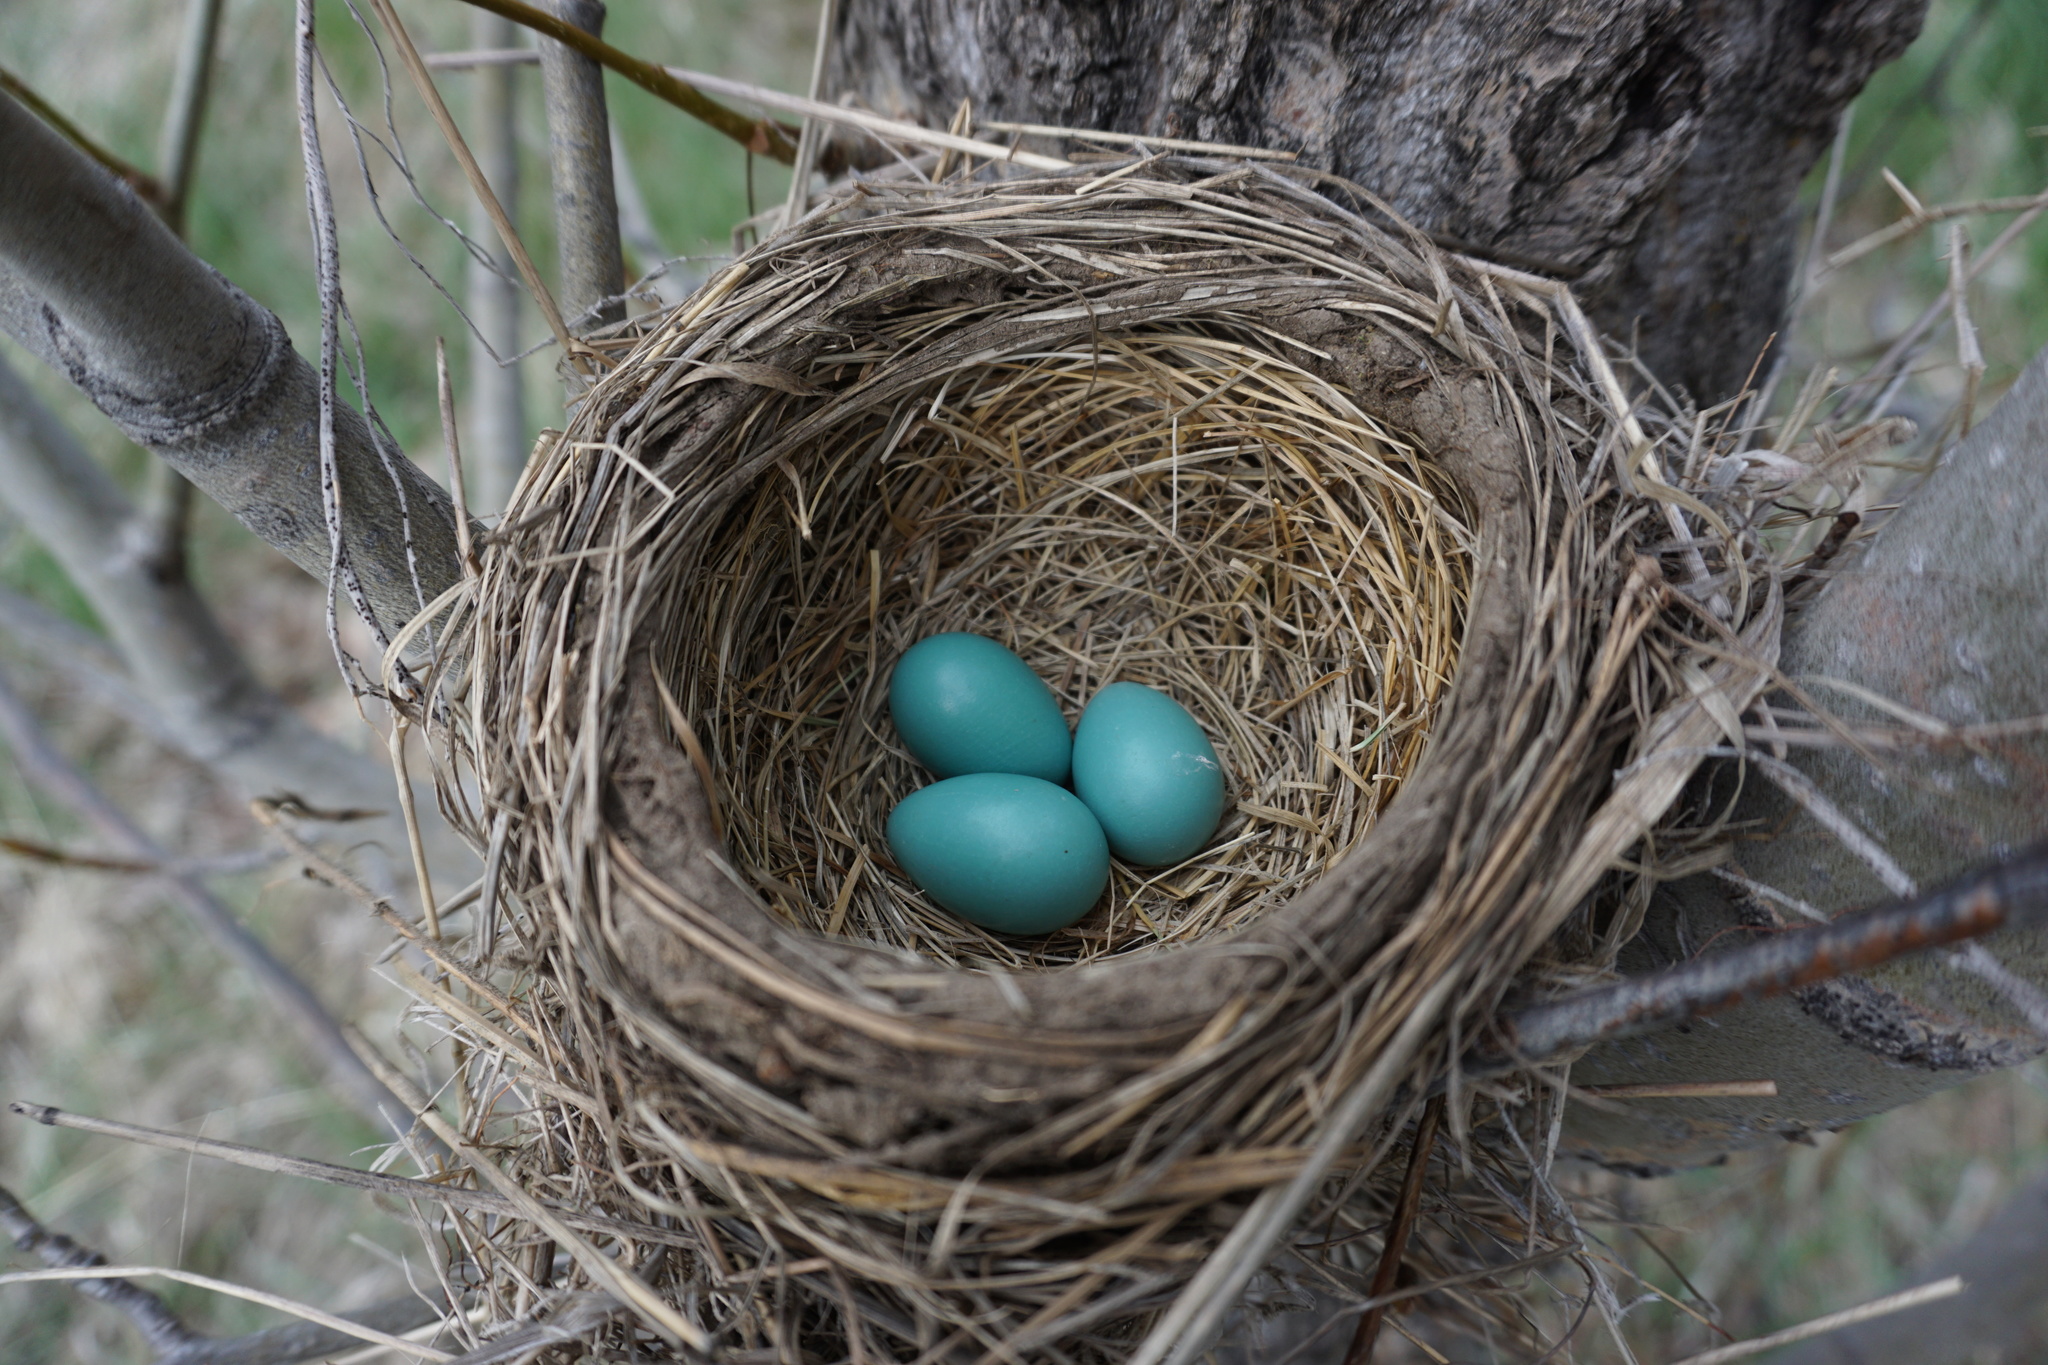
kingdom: Animalia
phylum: Chordata
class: Aves
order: Passeriformes
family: Turdidae
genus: Turdus
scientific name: Turdus migratorius
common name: American robin
